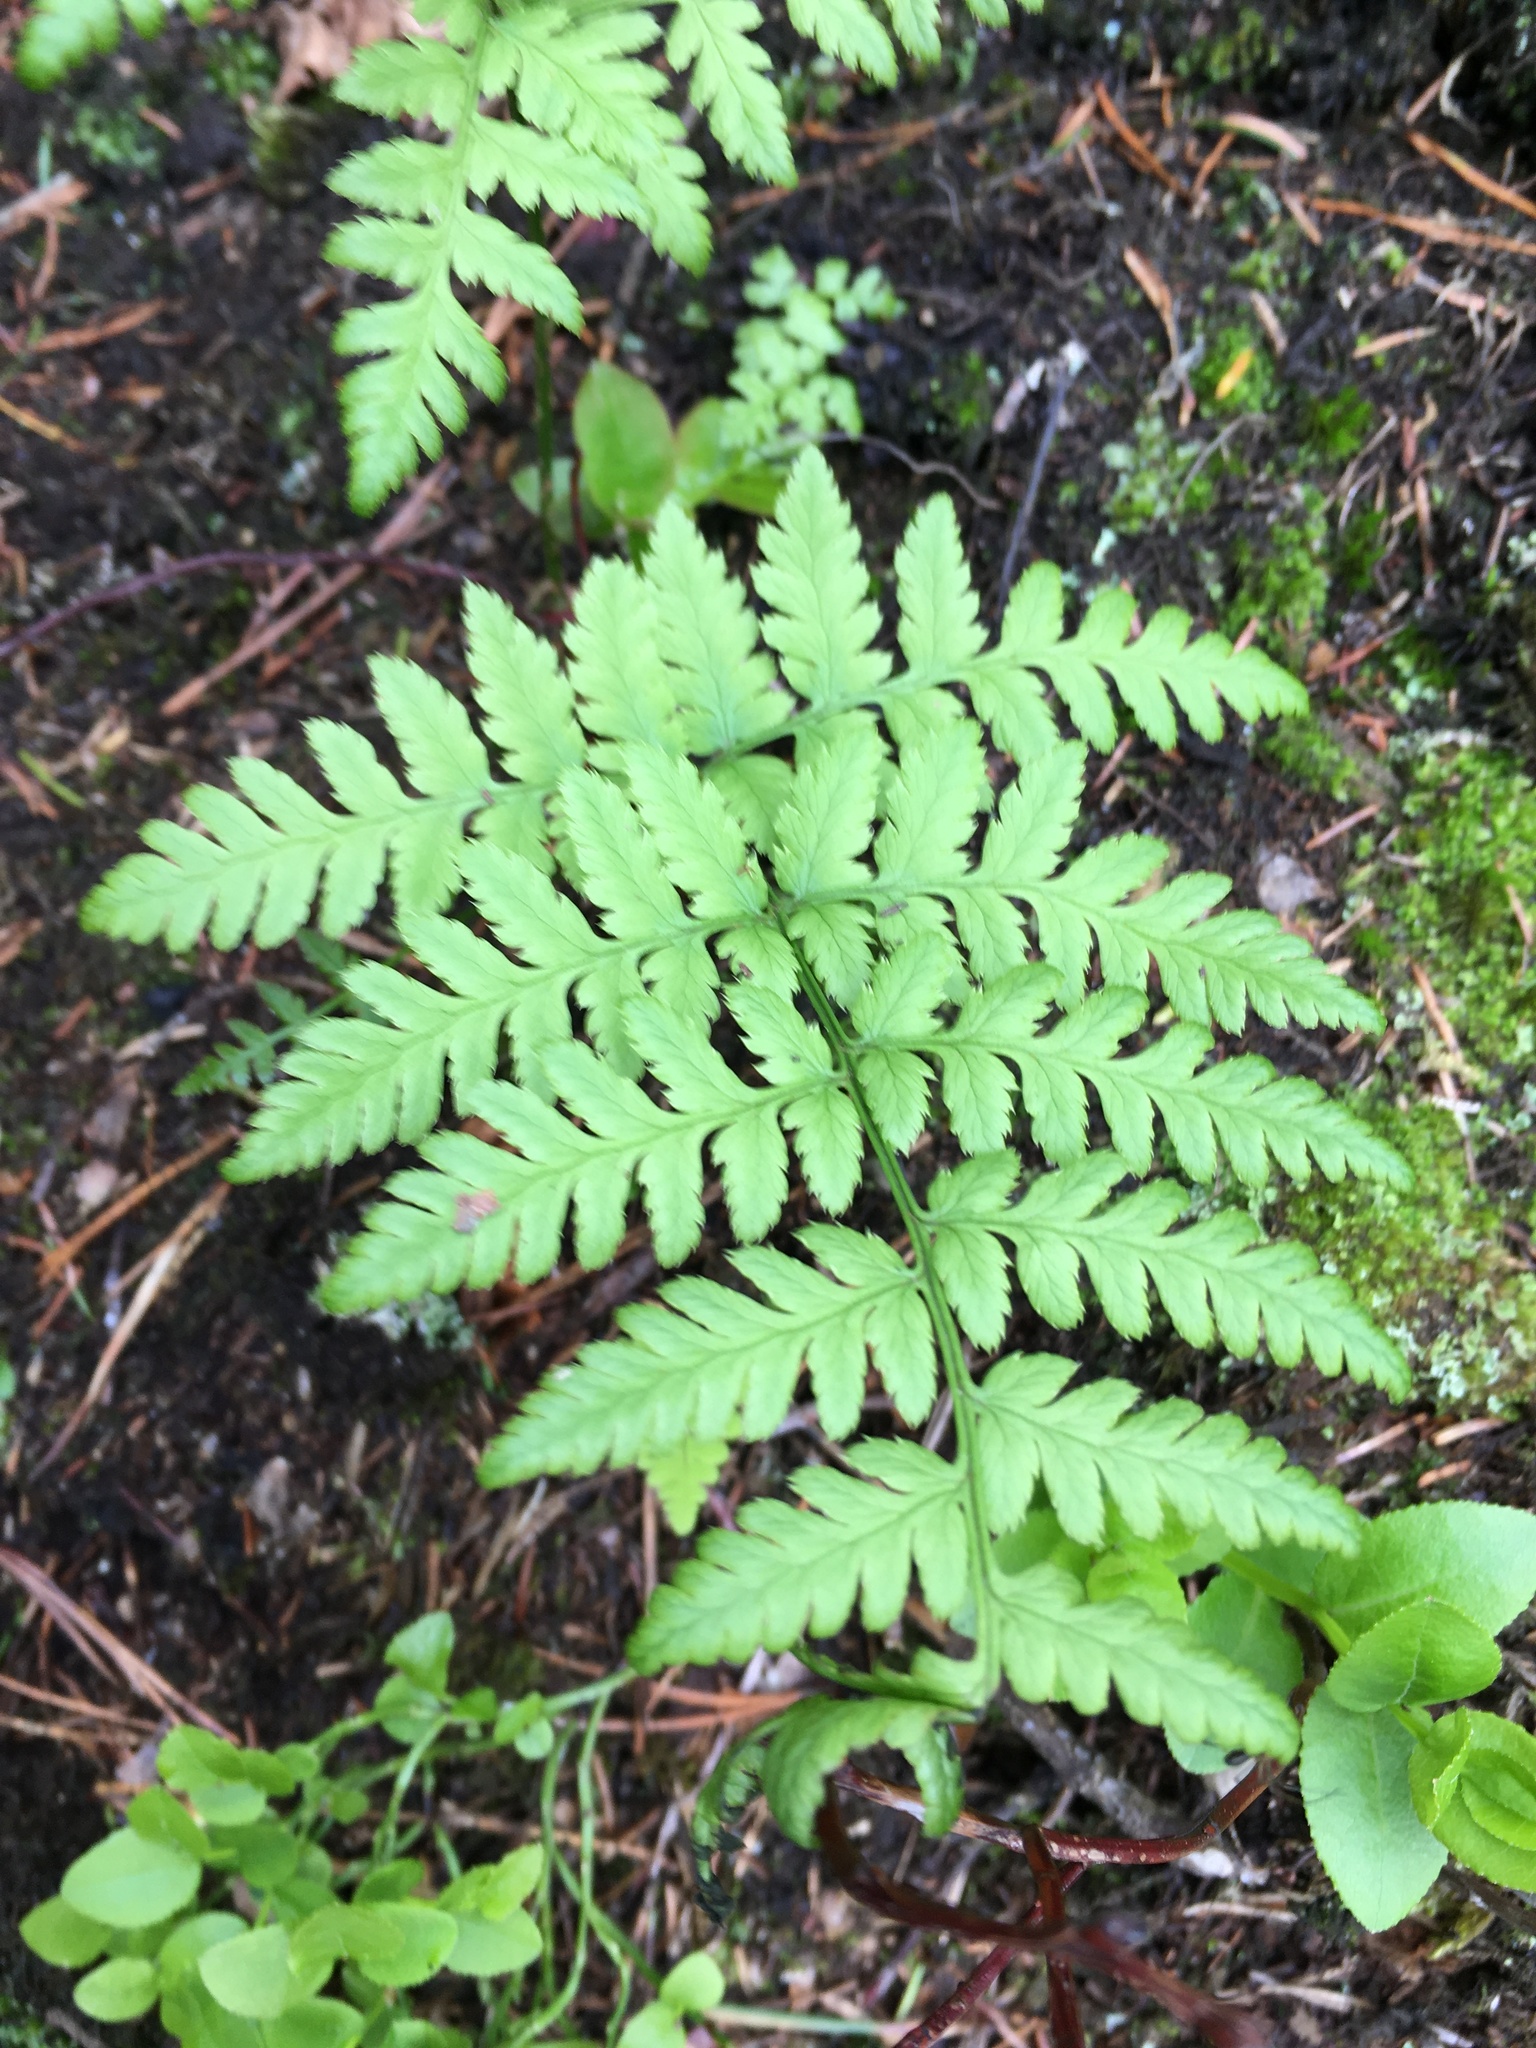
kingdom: Plantae
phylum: Tracheophyta
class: Polypodiopsida
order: Polypodiales
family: Dryopteridaceae
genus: Dryopteris
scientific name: Dryopteris carthusiana
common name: Narrow buckler-fern
